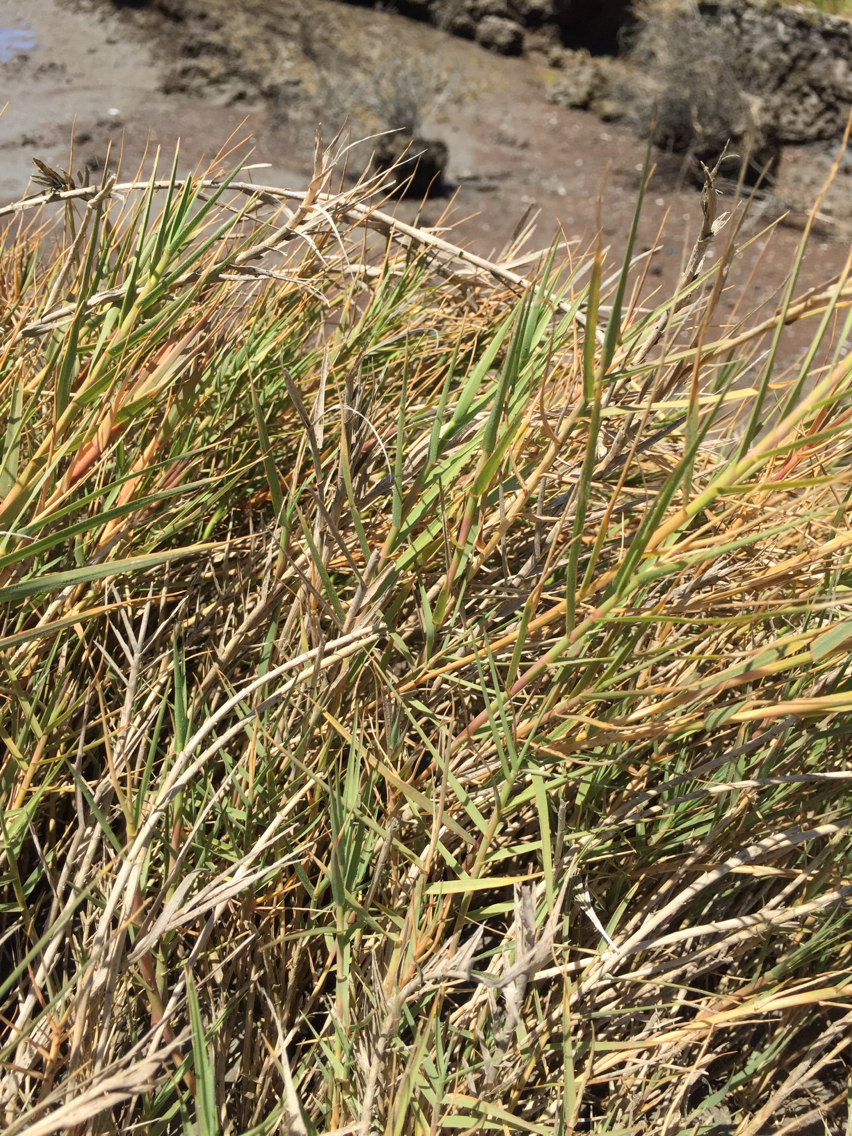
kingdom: Plantae
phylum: Tracheophyta
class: Liliopsida
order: Poales
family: Poaceae
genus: Distichlis
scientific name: Distichlis spicata
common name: Saltgrass
